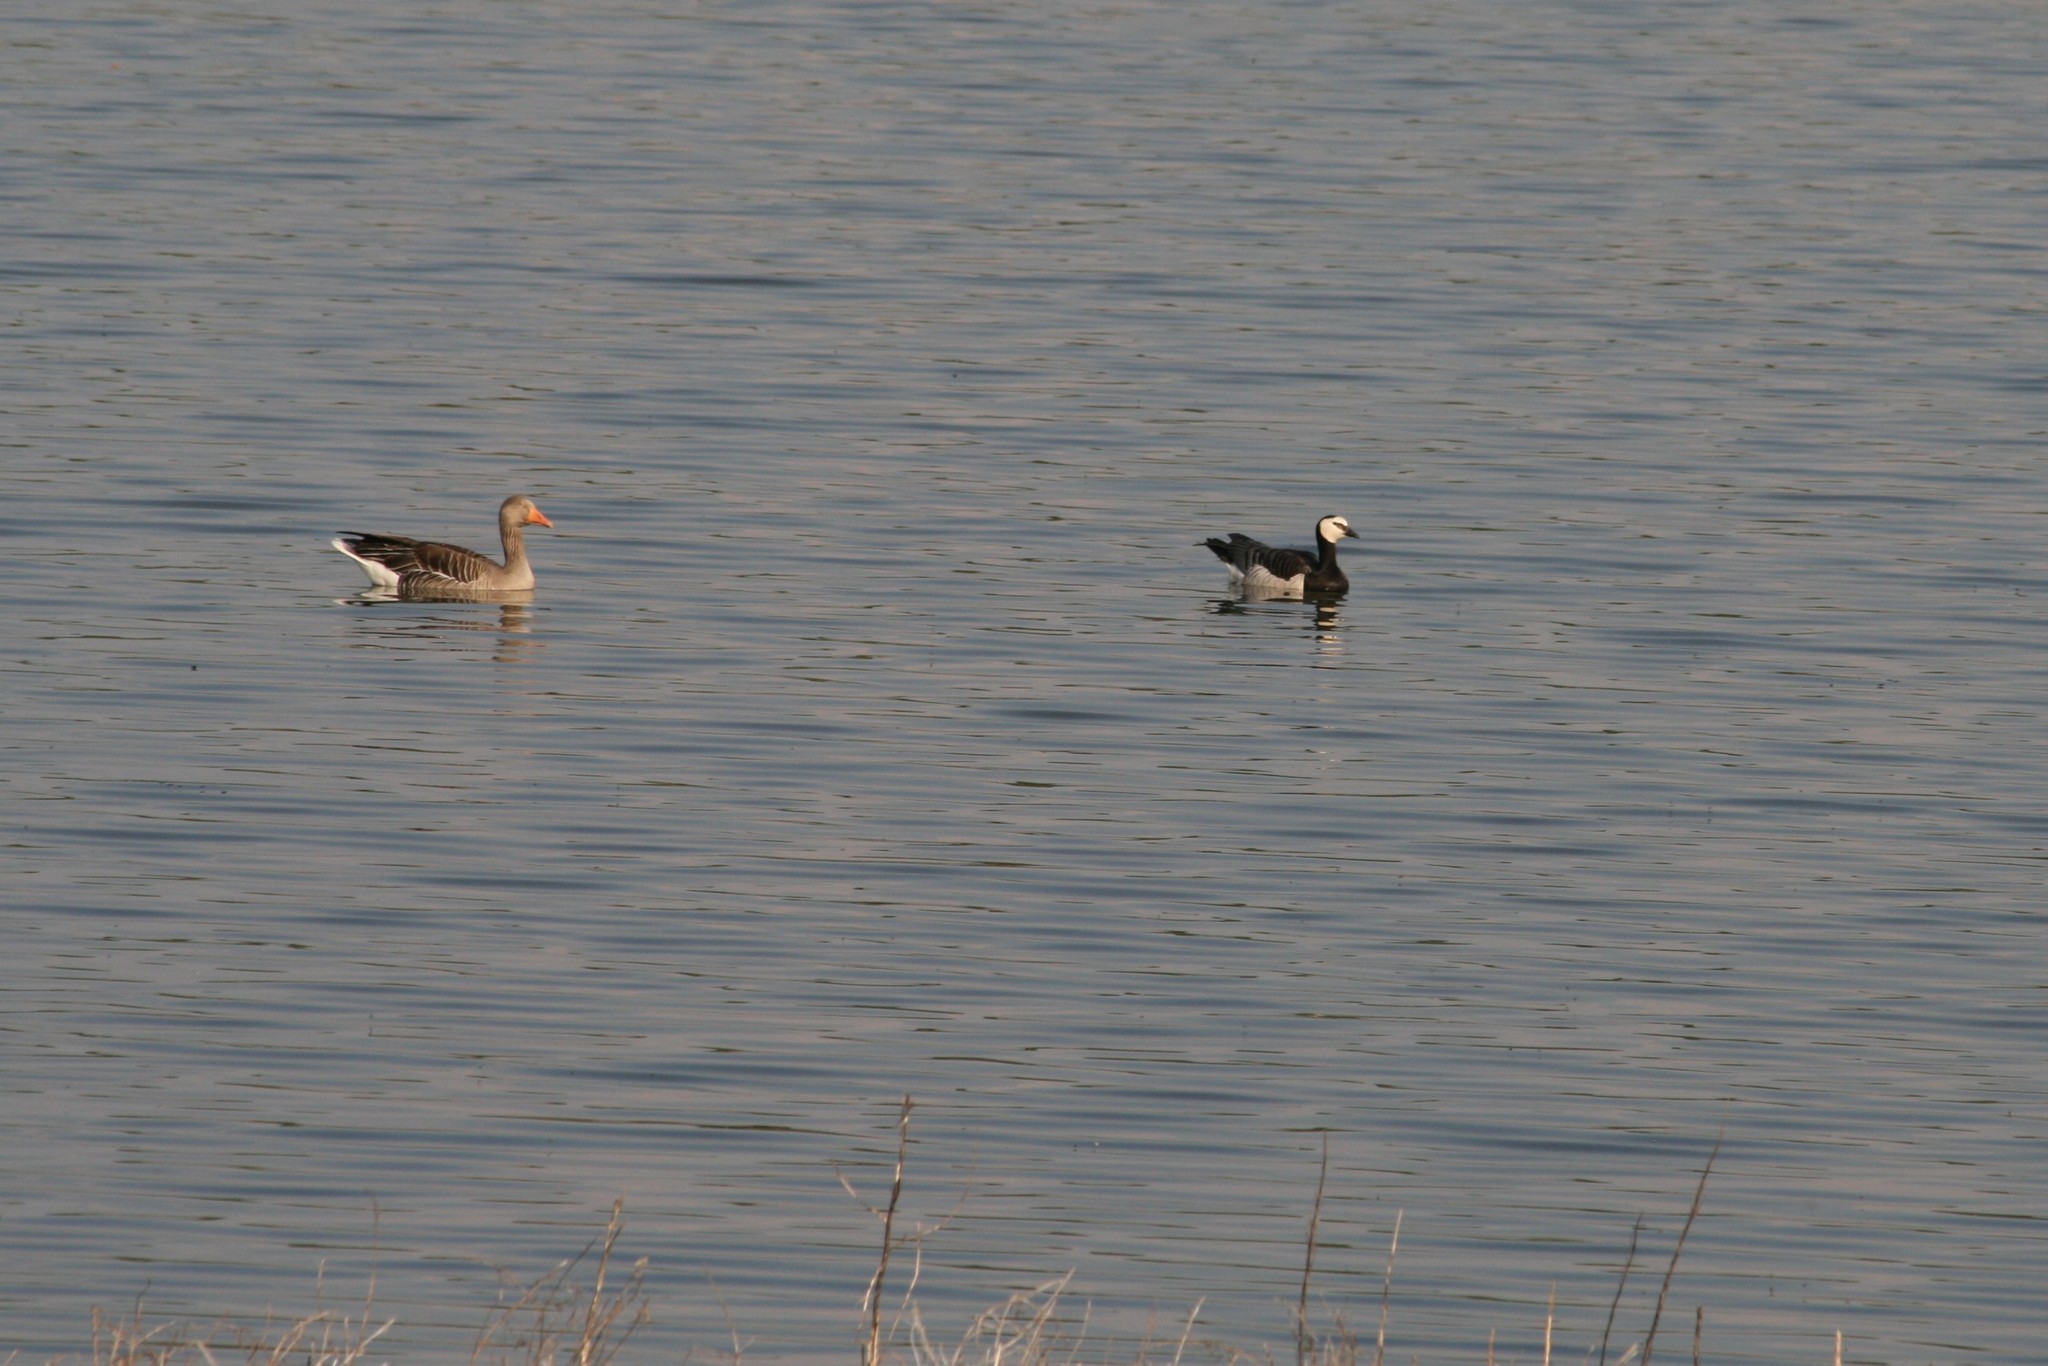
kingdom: Animalia
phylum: Chordata
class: Aves
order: Anseriformes
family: Anatidae
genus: Branta
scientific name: Branta leucopsis
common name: Barnacle goose
